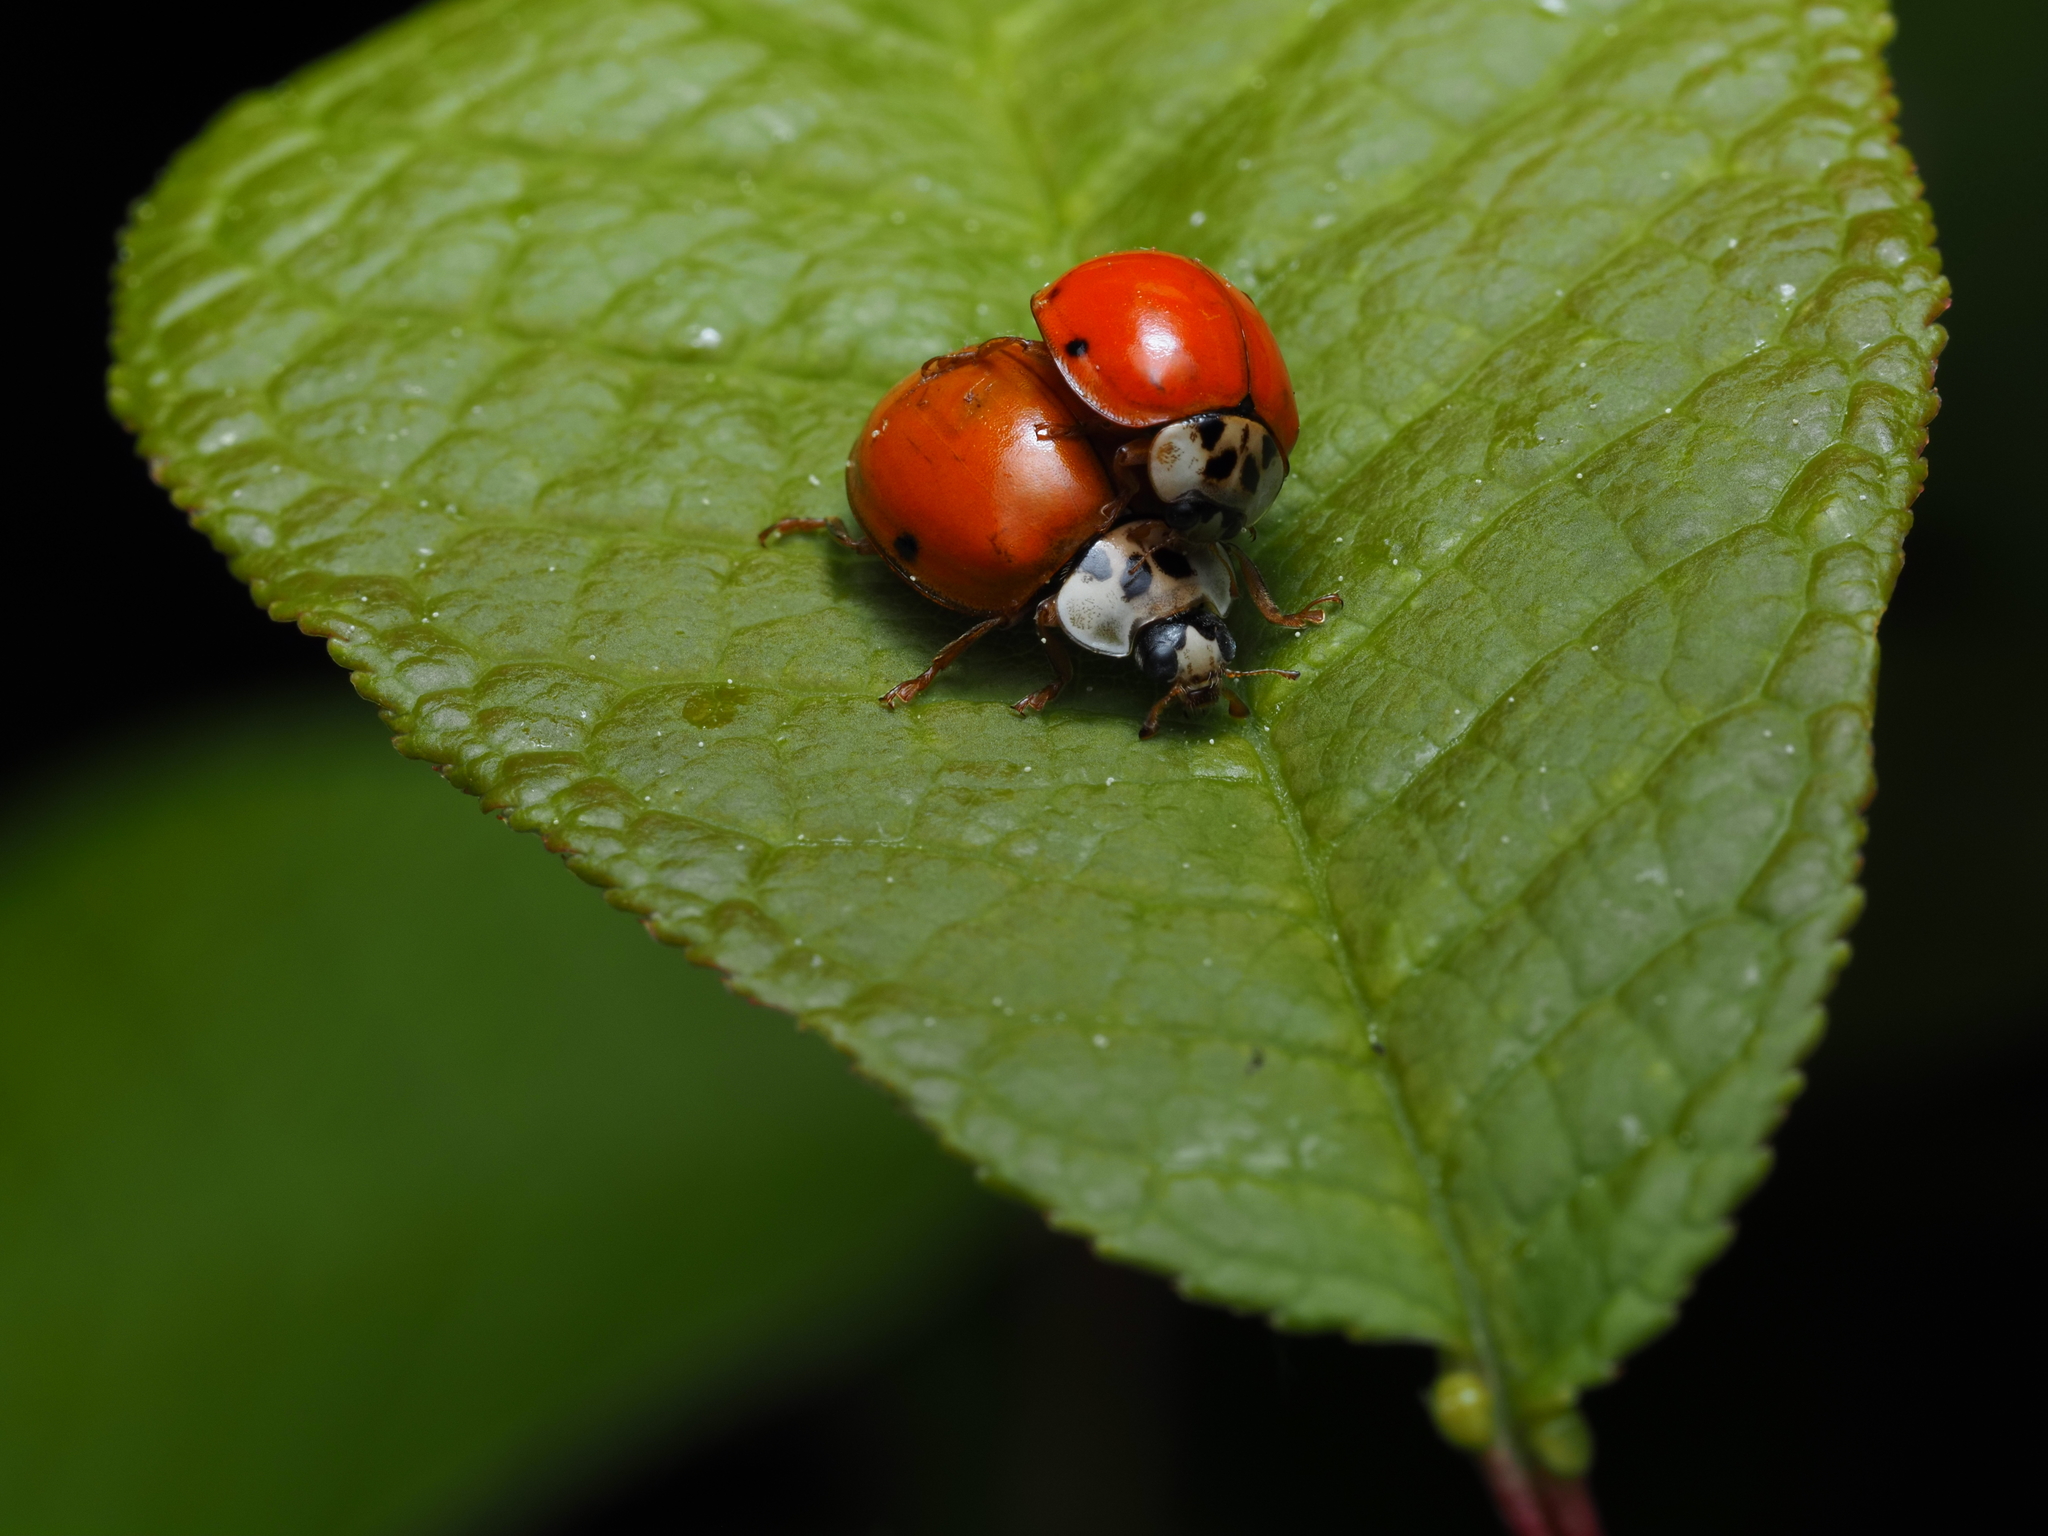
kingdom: Animalia
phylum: Arthropoda
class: Insecta
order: Coleoptera
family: Coccinellidae
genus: Harmonia
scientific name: Harmonia axyridis
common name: Harlequin ladybird
